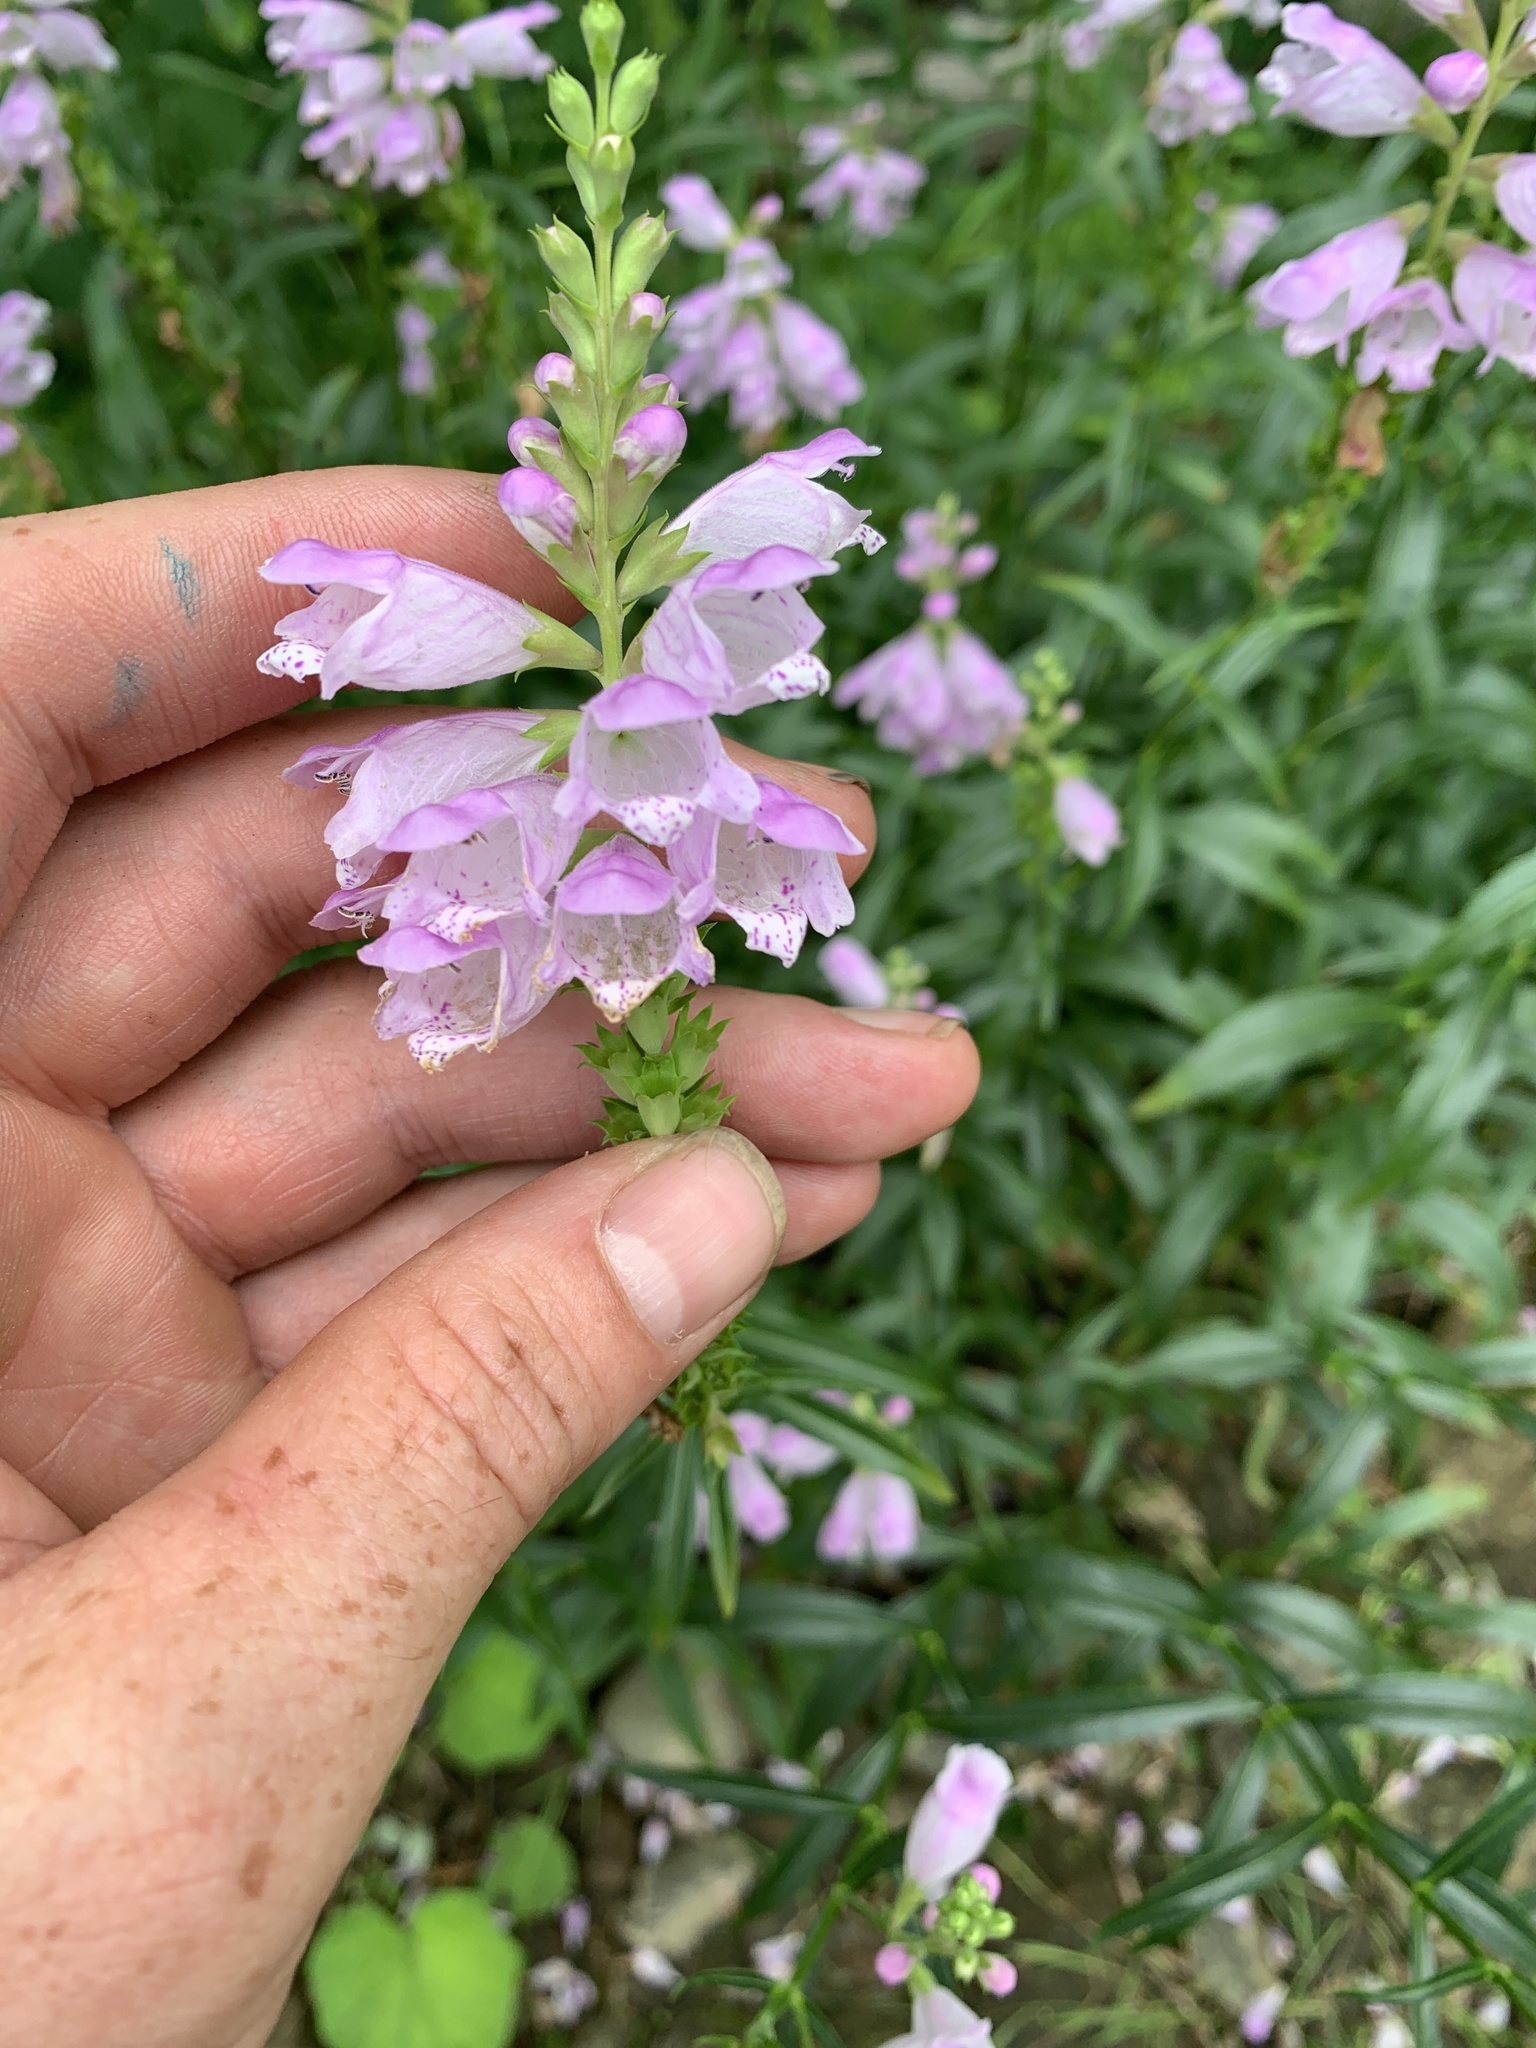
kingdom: Plantae
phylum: Tracheophyta
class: Magnoliopsida
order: Lamiales
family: Lamiaceae
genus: Physostegia
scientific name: Physostegia virginiana
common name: Obedient-plant
